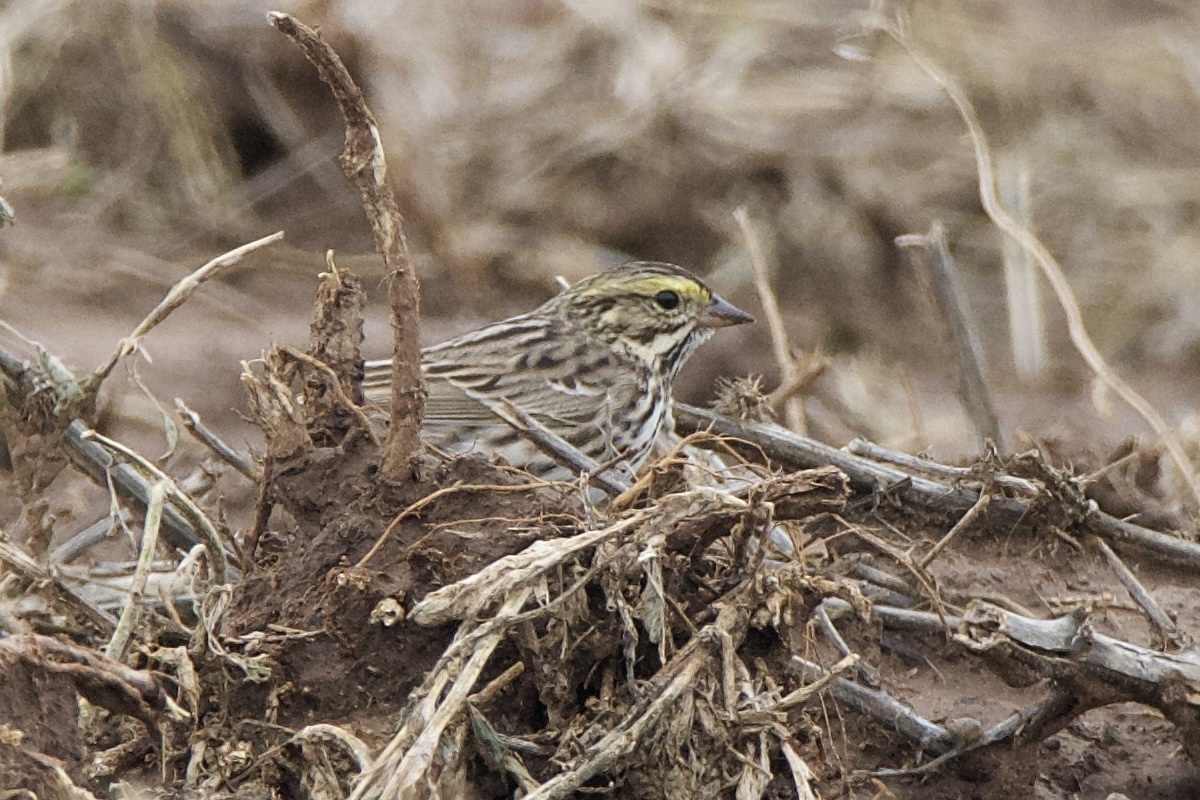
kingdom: Animalia
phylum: Chordata
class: Aves
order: Passeriformes
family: Passerellidae
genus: Passerculus
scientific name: Passerculus sandwichensis
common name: Savannah sparrow
